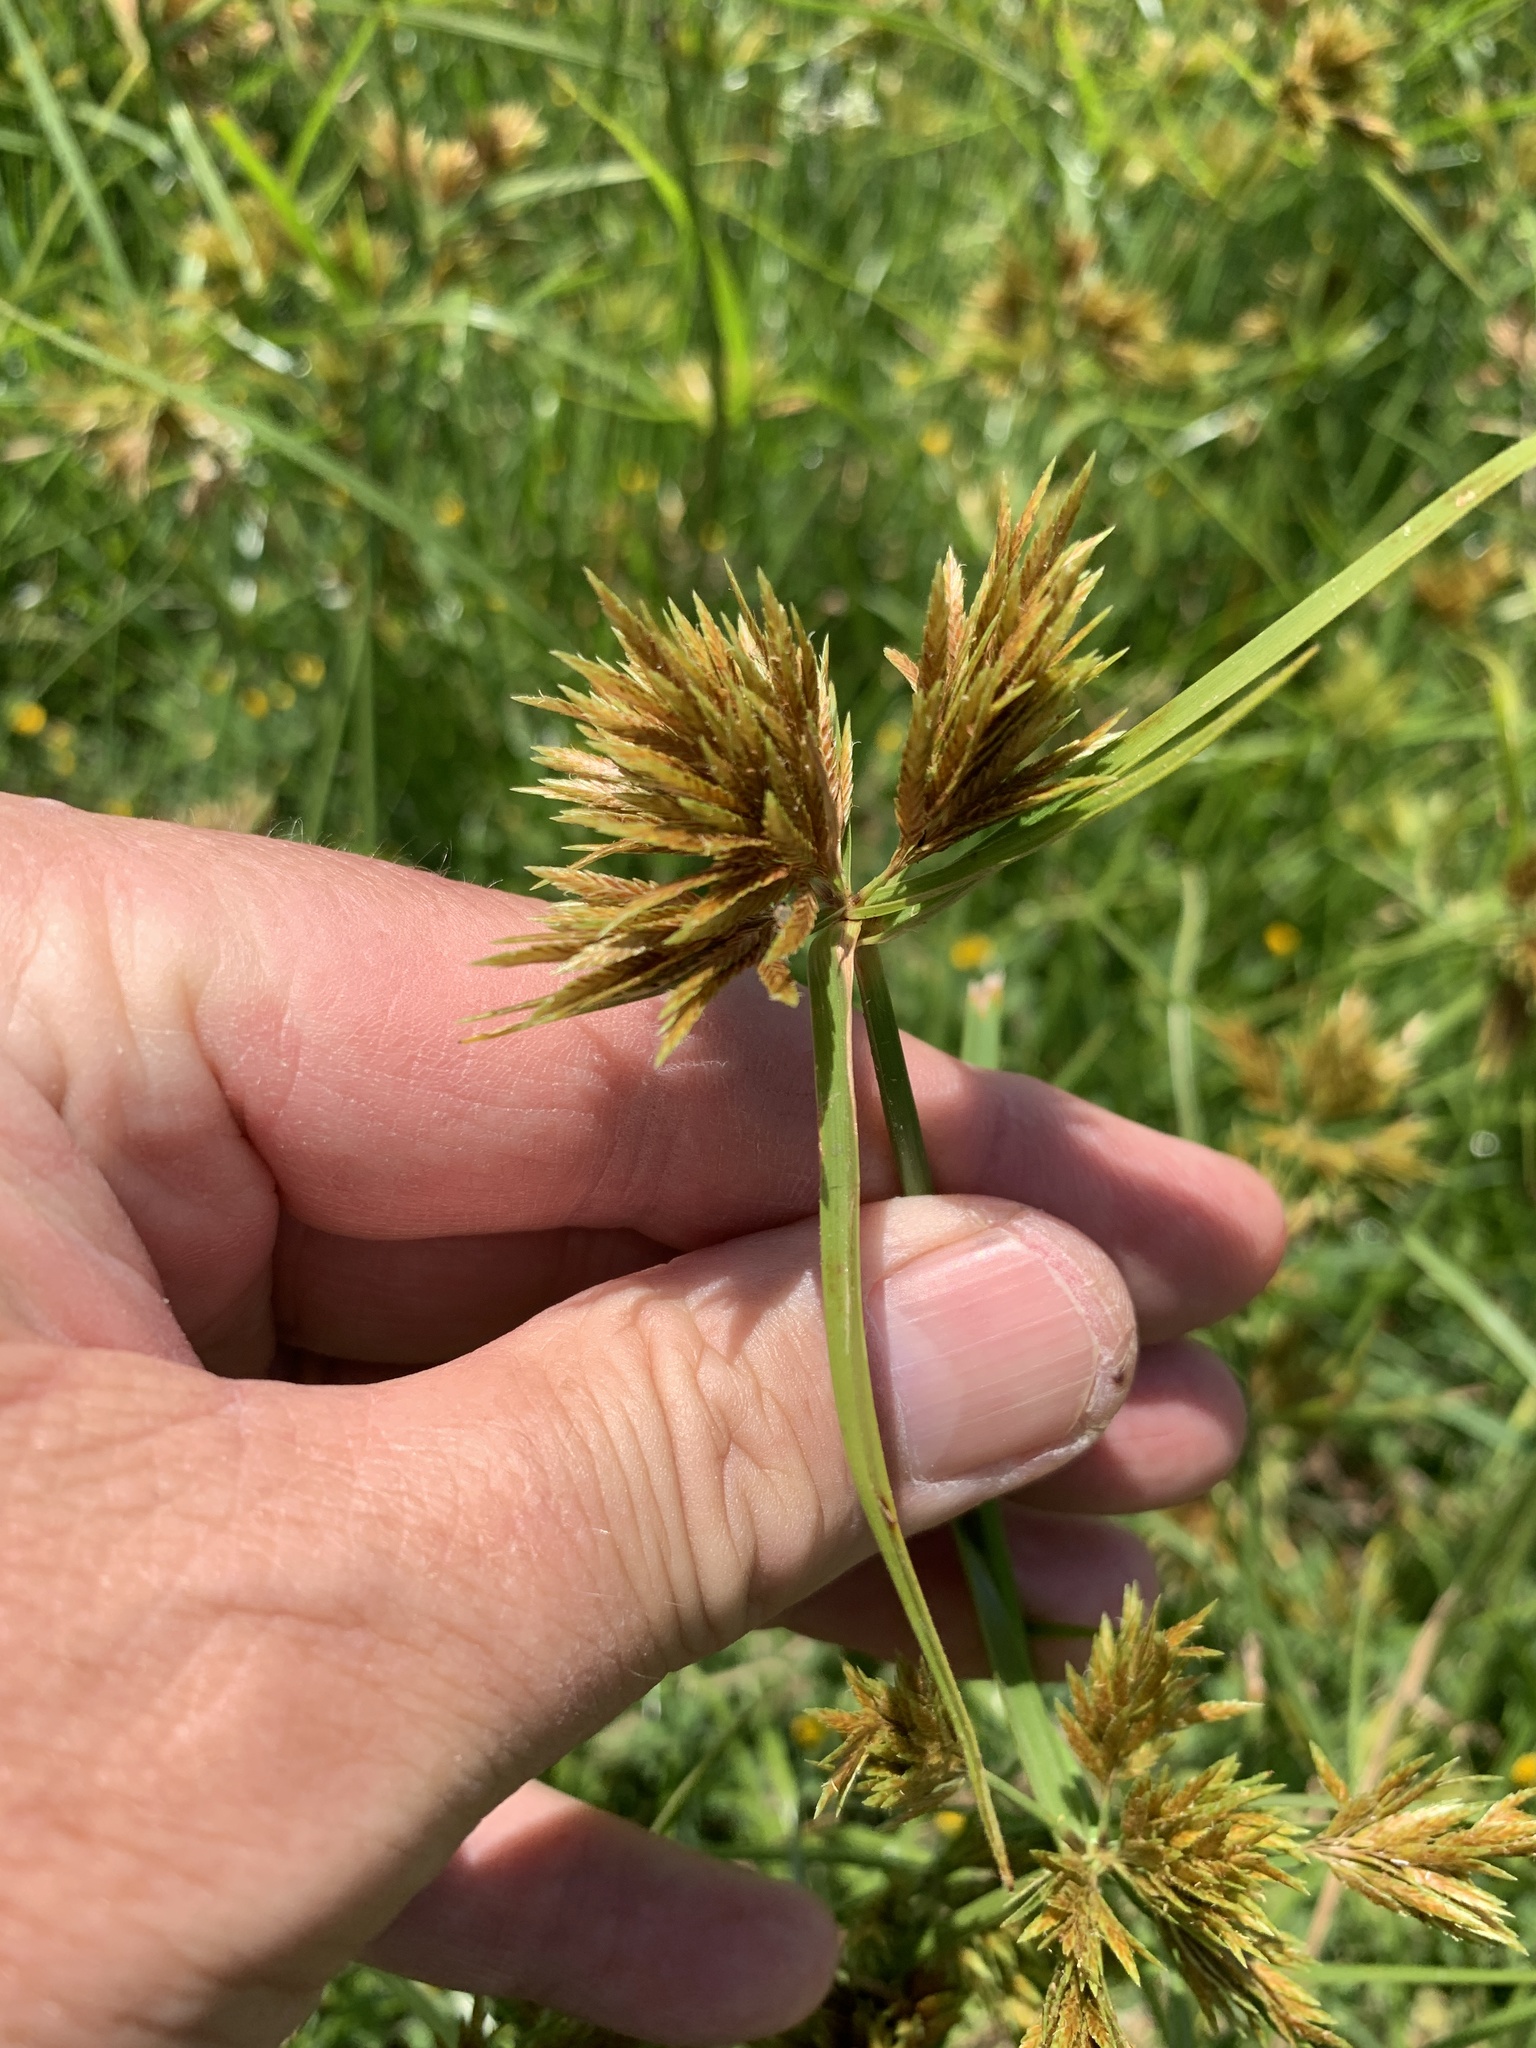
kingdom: Plantae
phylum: Tracheophyta
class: Liliopsida
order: Poales
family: Cyperaceae
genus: Cyperus
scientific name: Cyperus polystachyos
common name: Bunchy flat sedge
